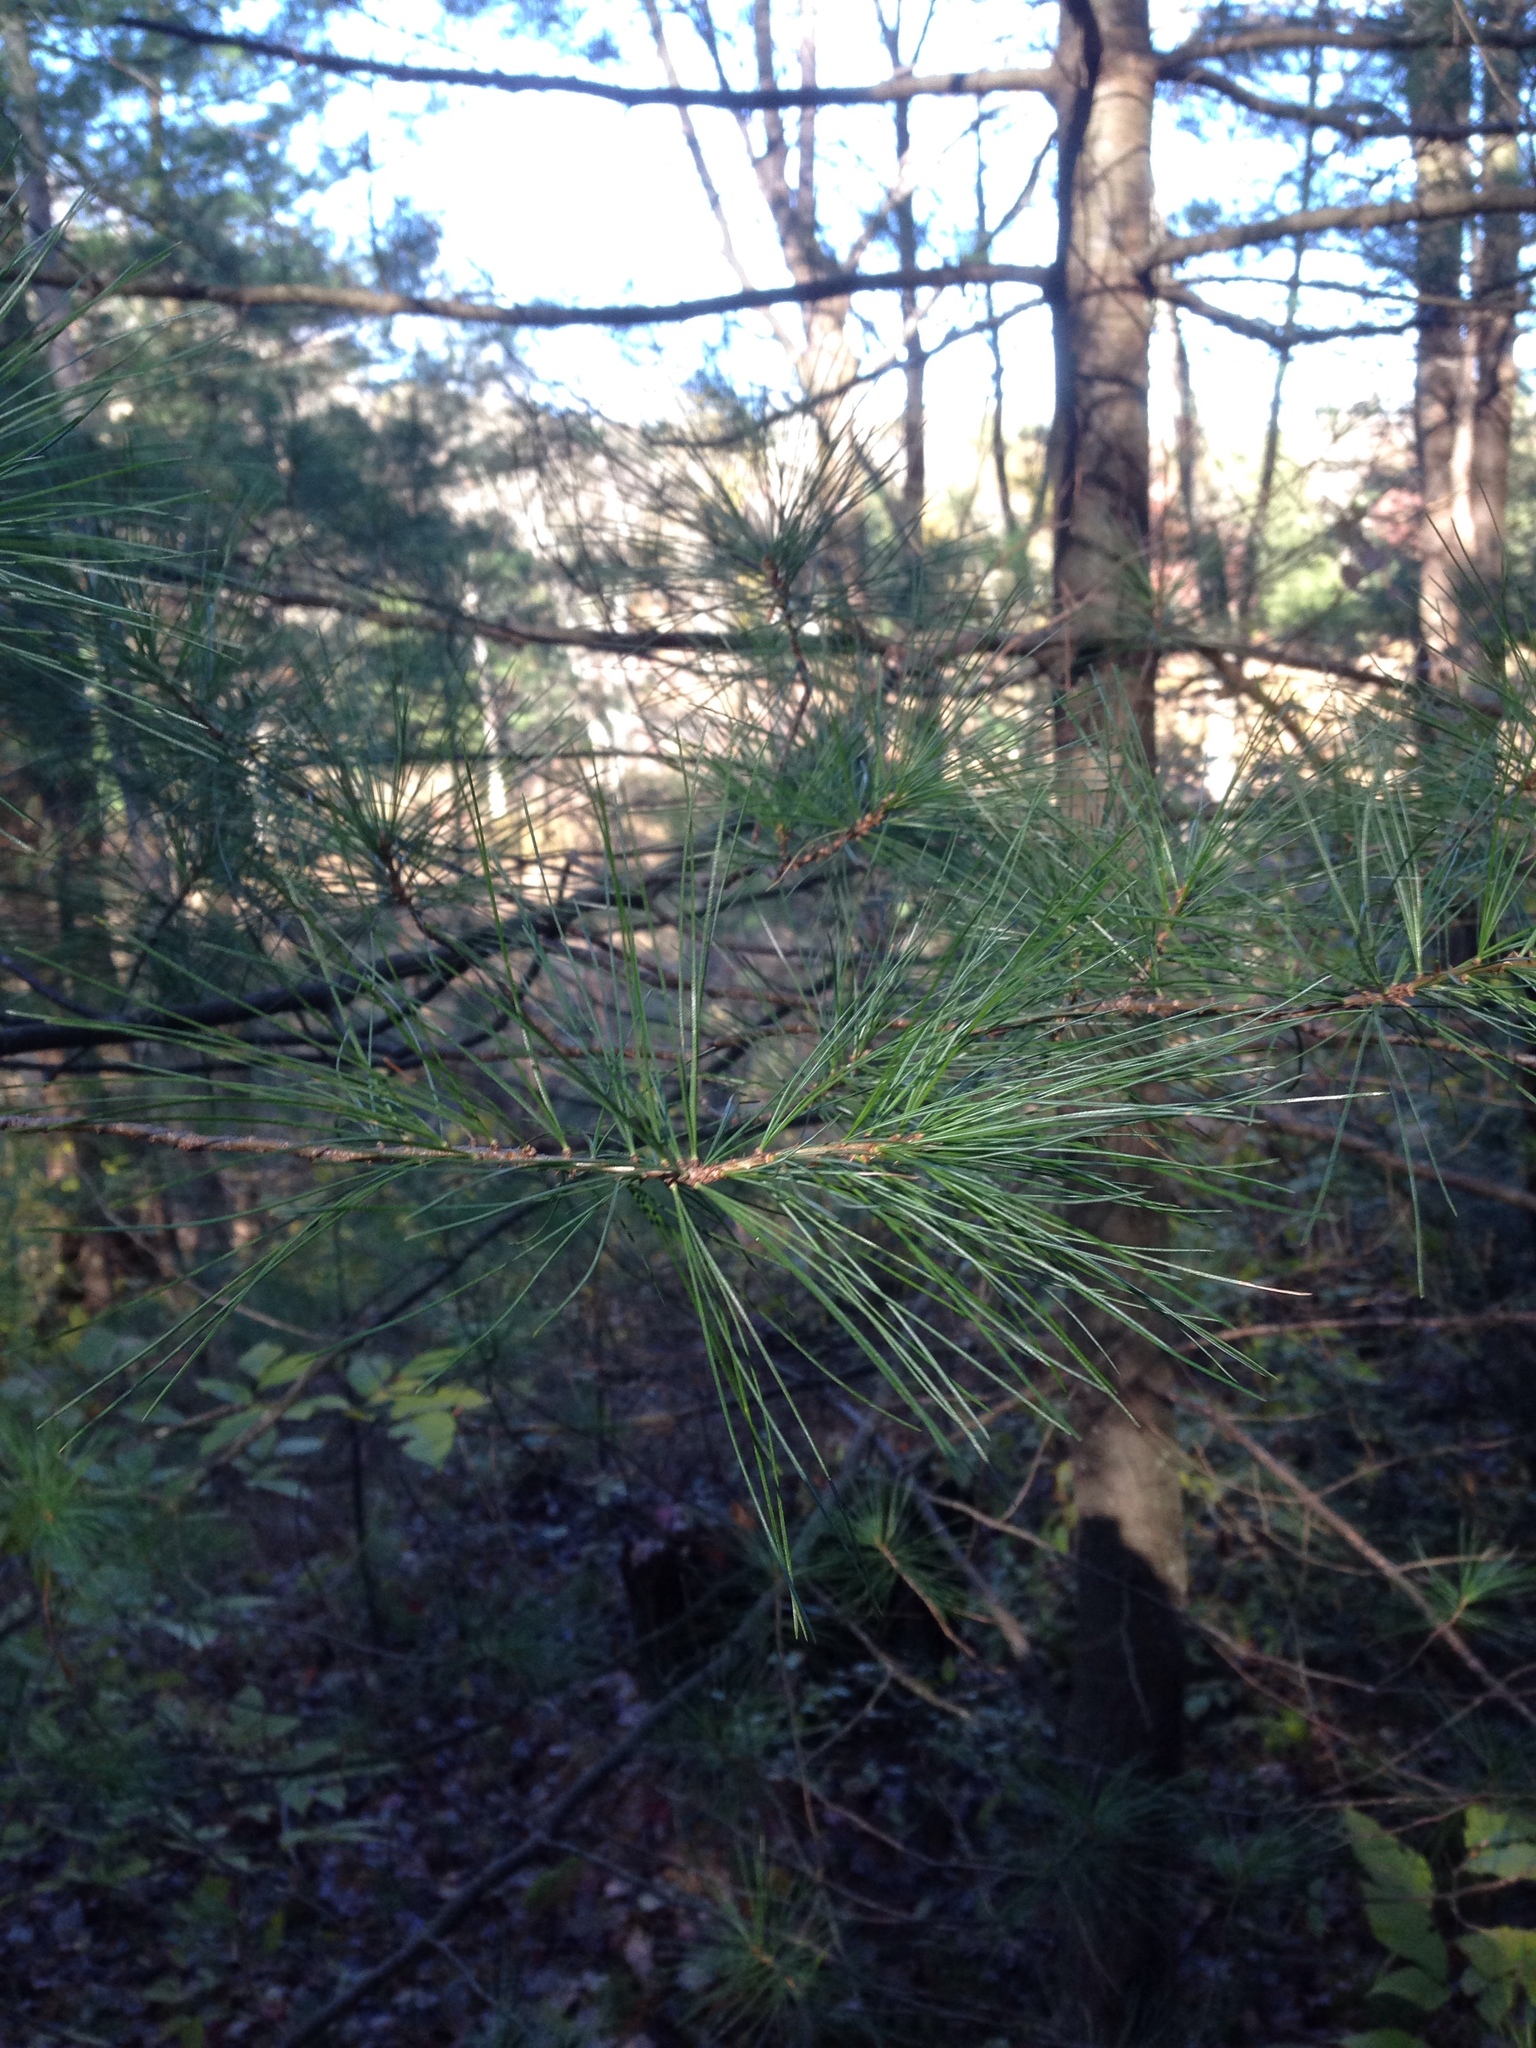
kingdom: Plantae
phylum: Tracheophyta
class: Pinopsida
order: Pinales
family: Pinaceae
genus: Pinus
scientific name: Pinus strobus
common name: Weymouth pine
